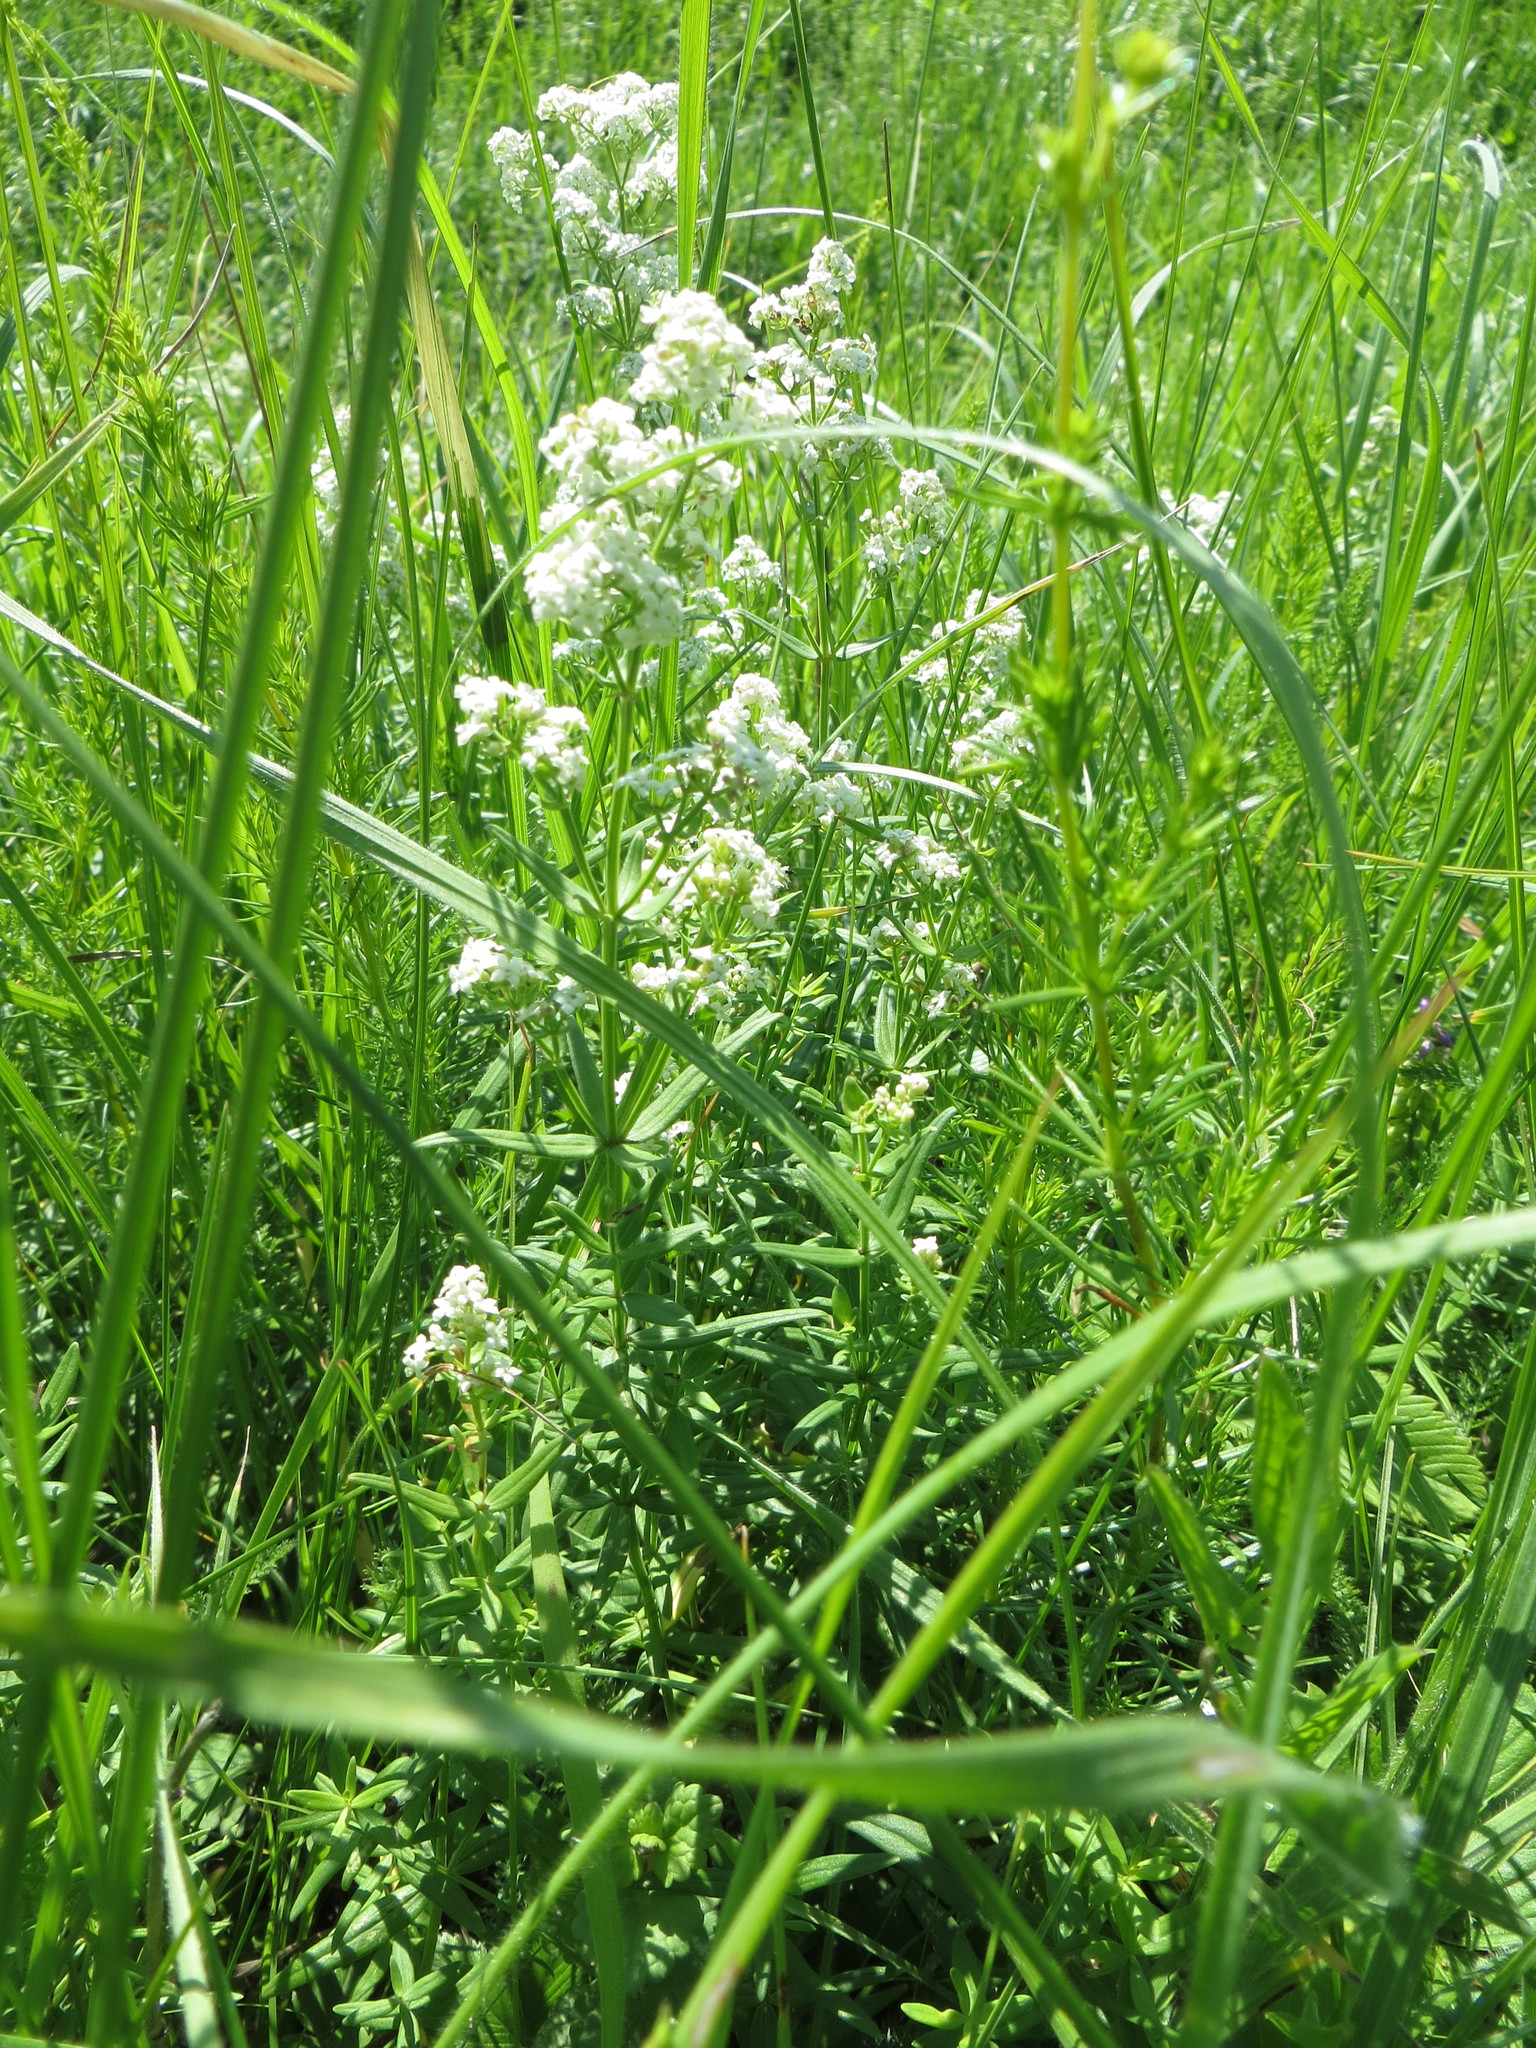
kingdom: Plantae
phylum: Tracheophyta
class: Magnoliopsida
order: Gentianales
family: Rubiaceae
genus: Galium
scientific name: Galium boreale
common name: Northern bedstraw
